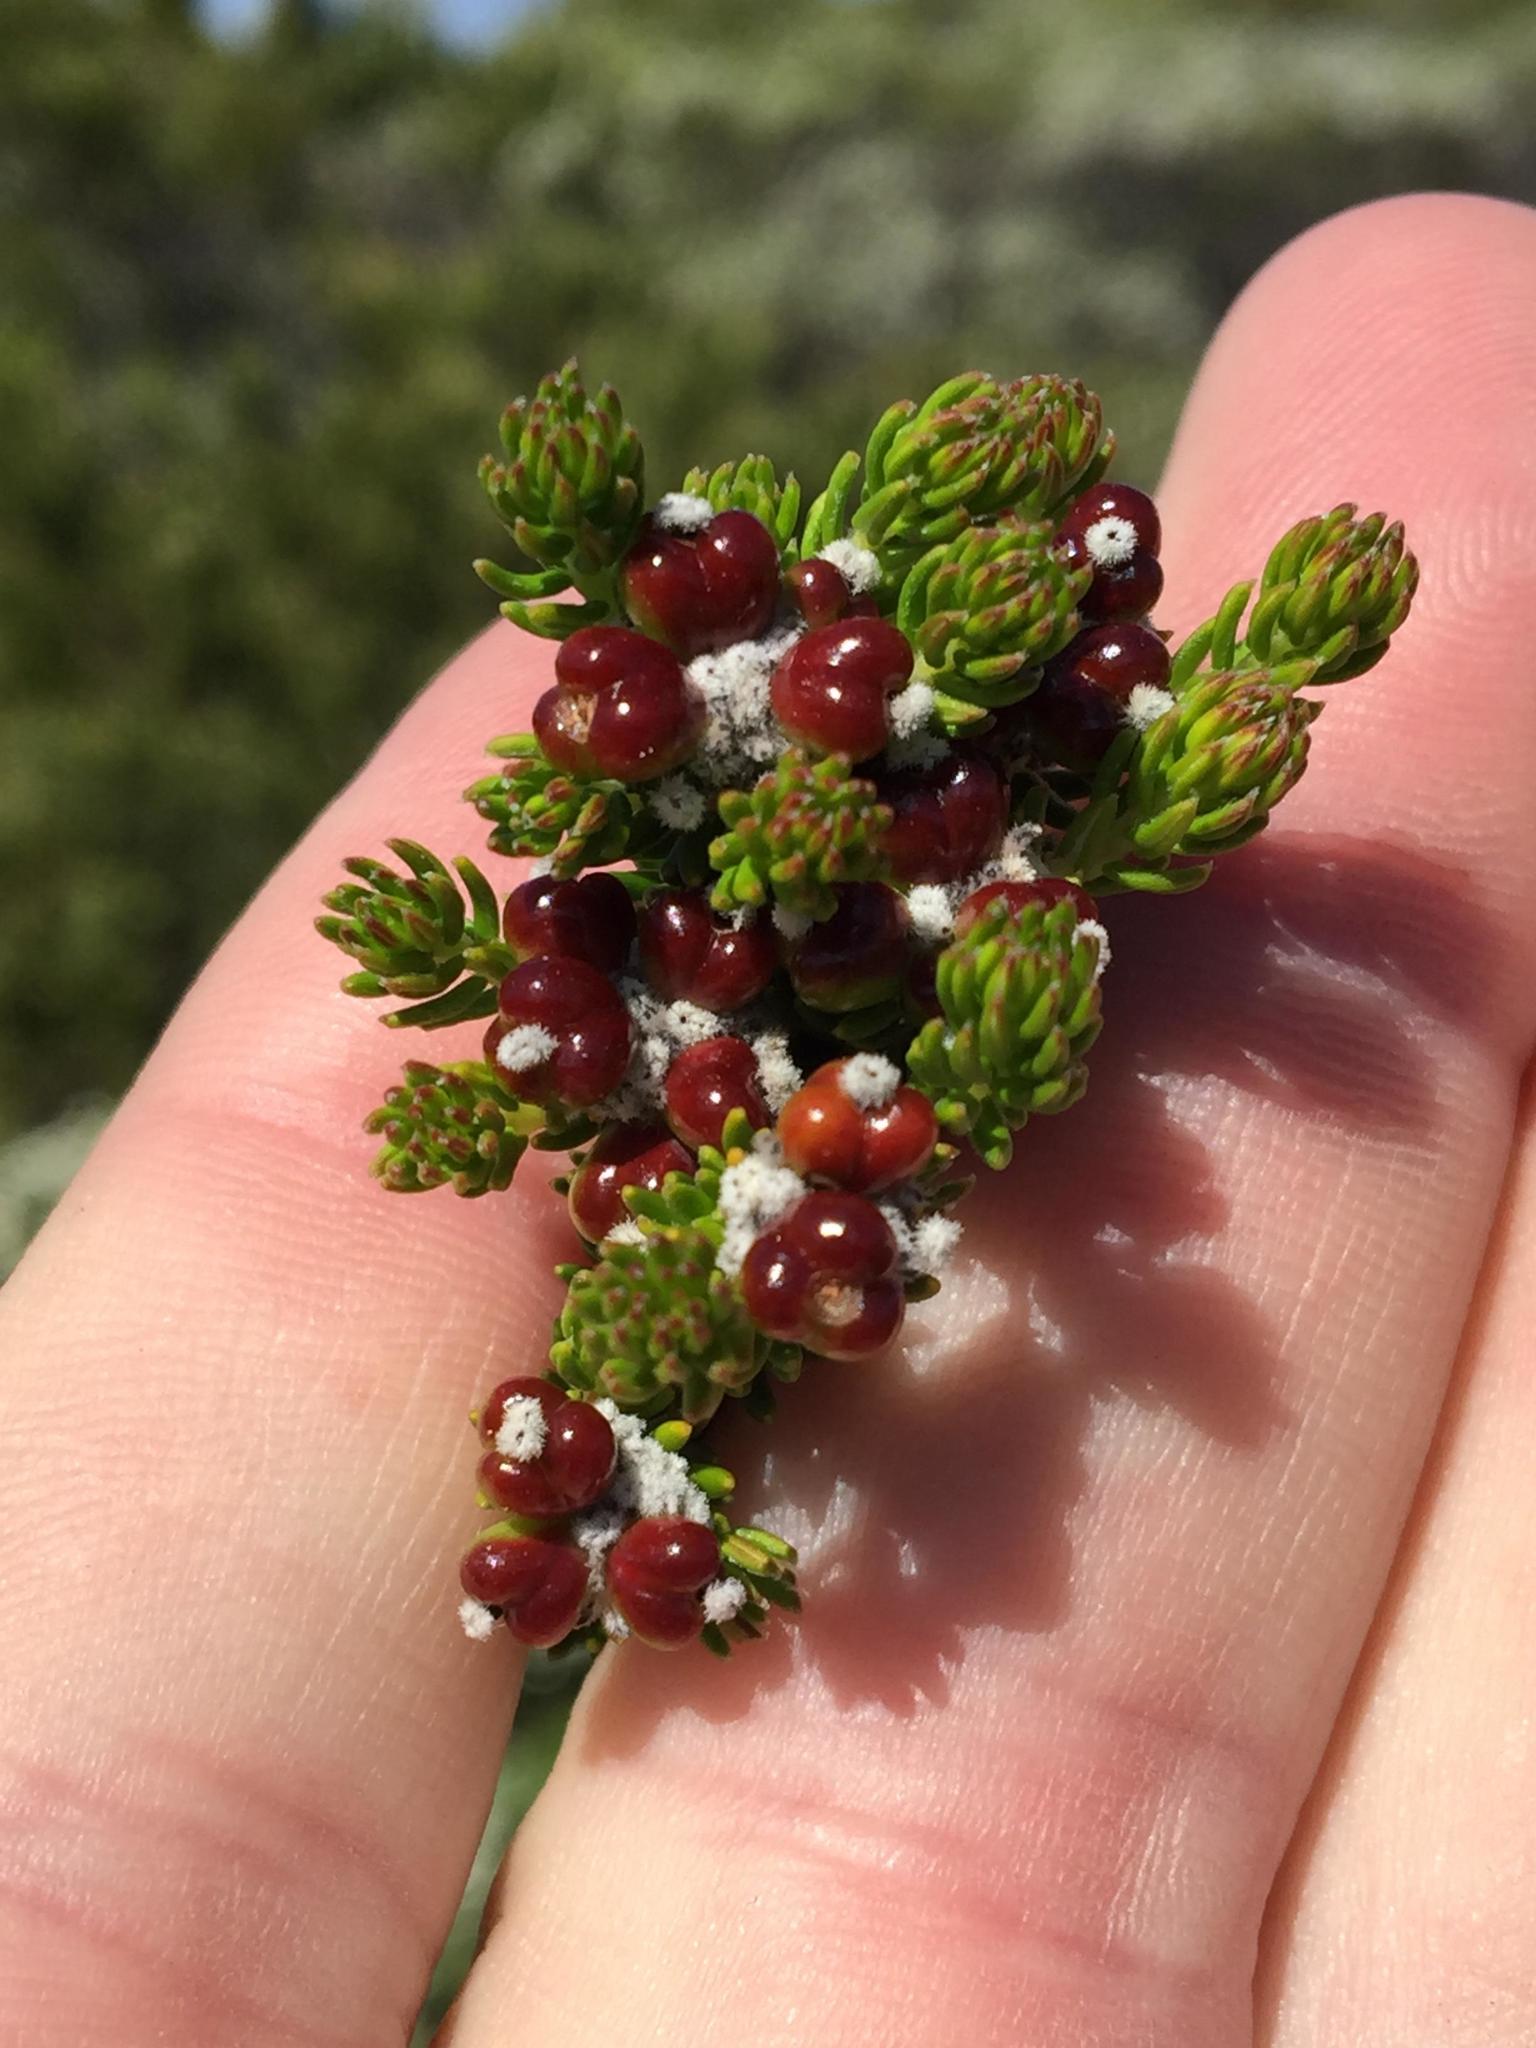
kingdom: Plantae
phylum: Tracheophyta
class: Magnoliopsida
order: Rosales
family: Rhamnaceae
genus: Phylica
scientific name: Phylica ericoides
